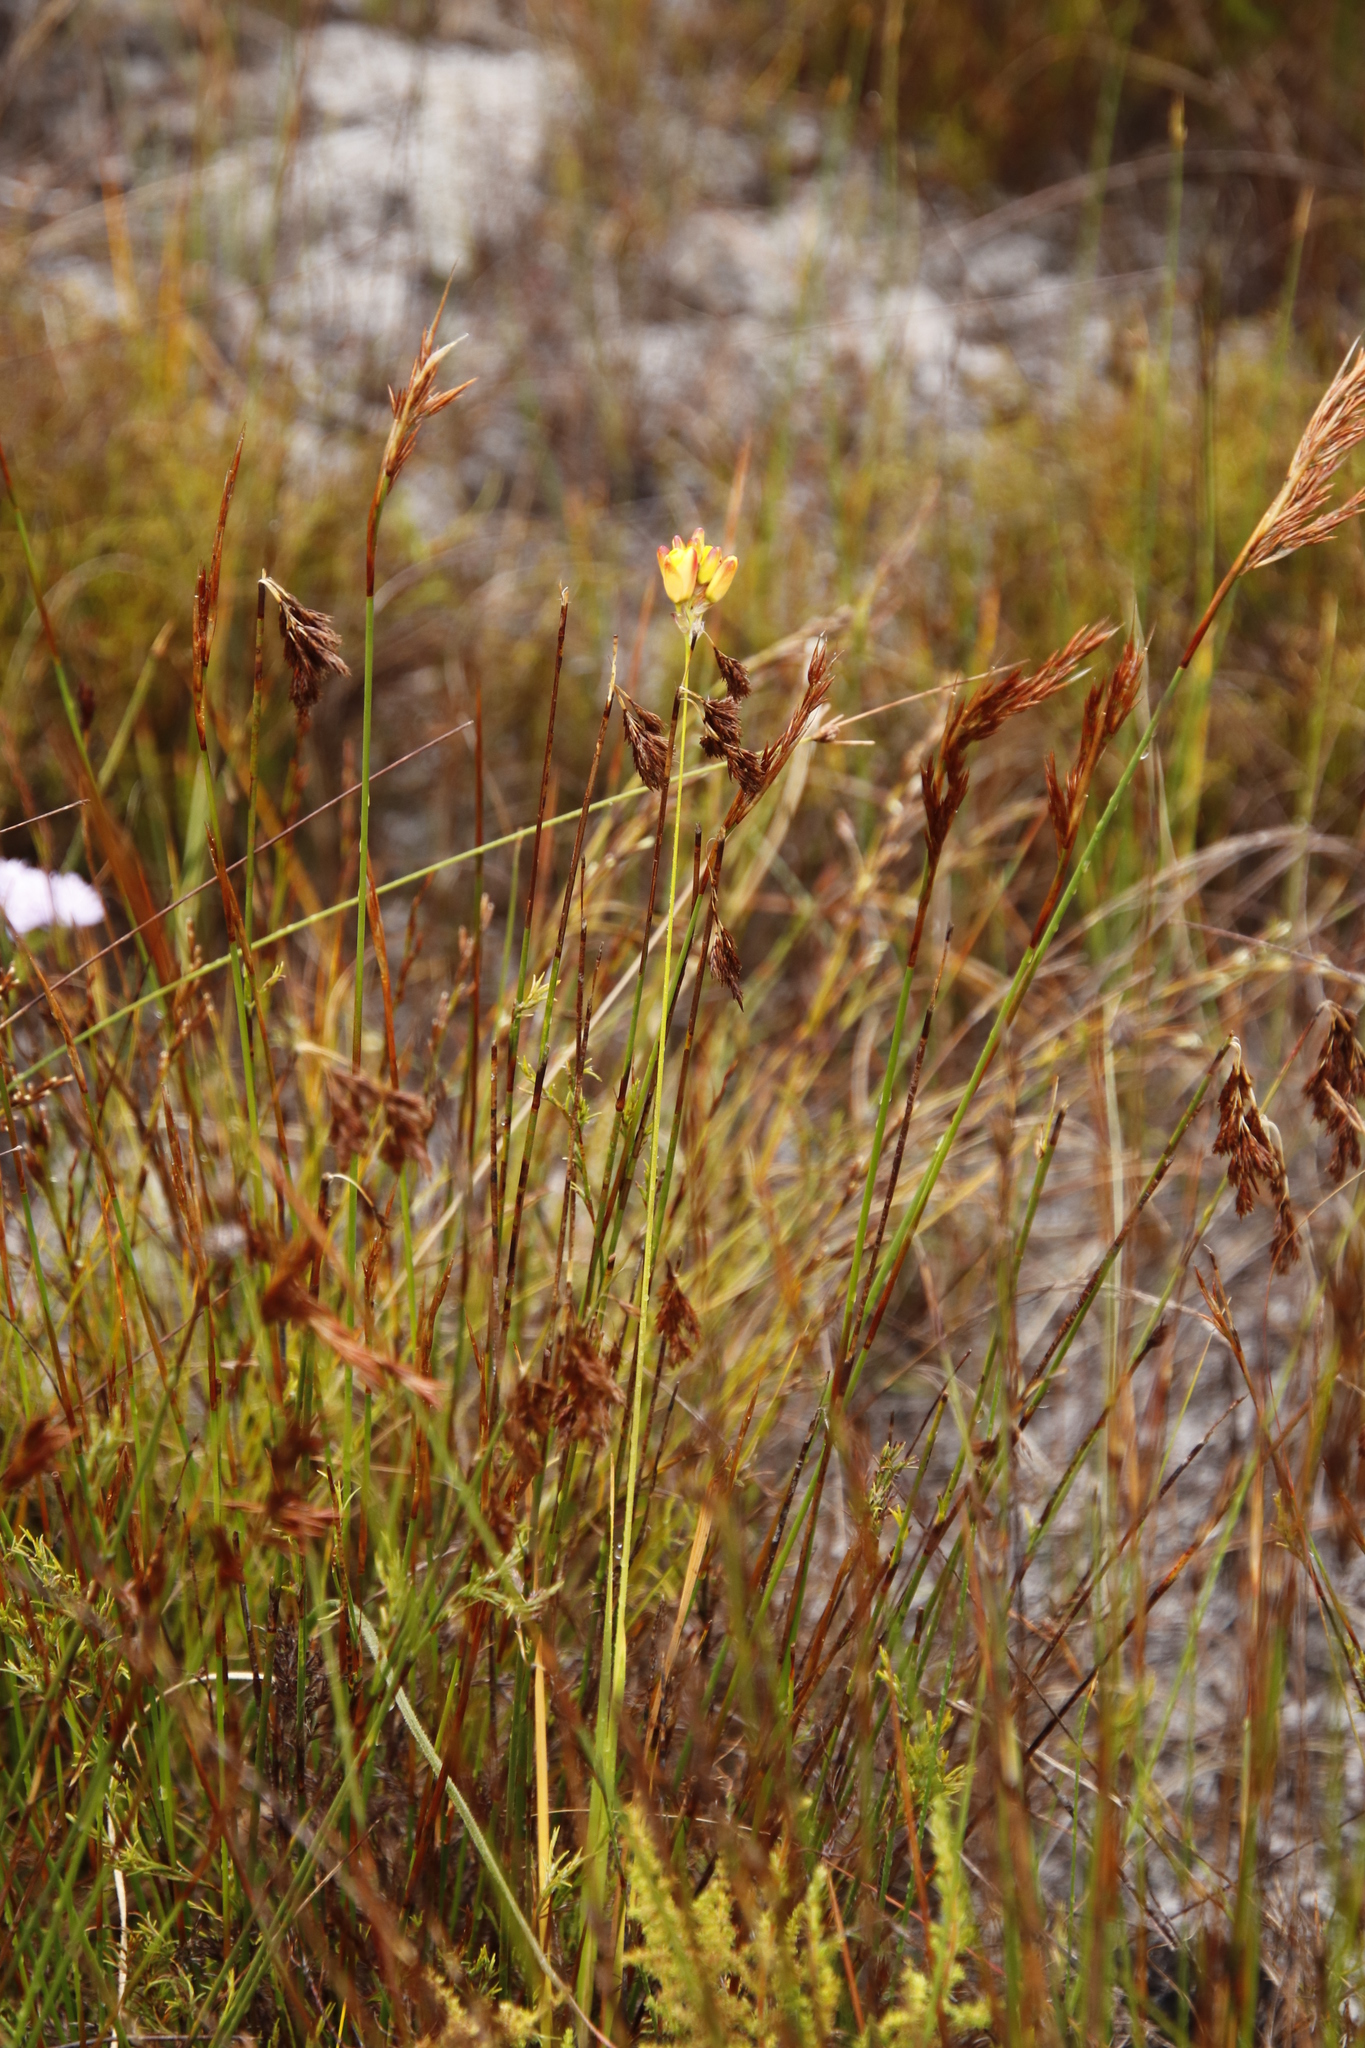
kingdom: Plantae
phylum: Tracheophyta
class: Liliopsida
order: Asparagales
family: Iridaceae
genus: Ixia
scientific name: Ixia dubia
